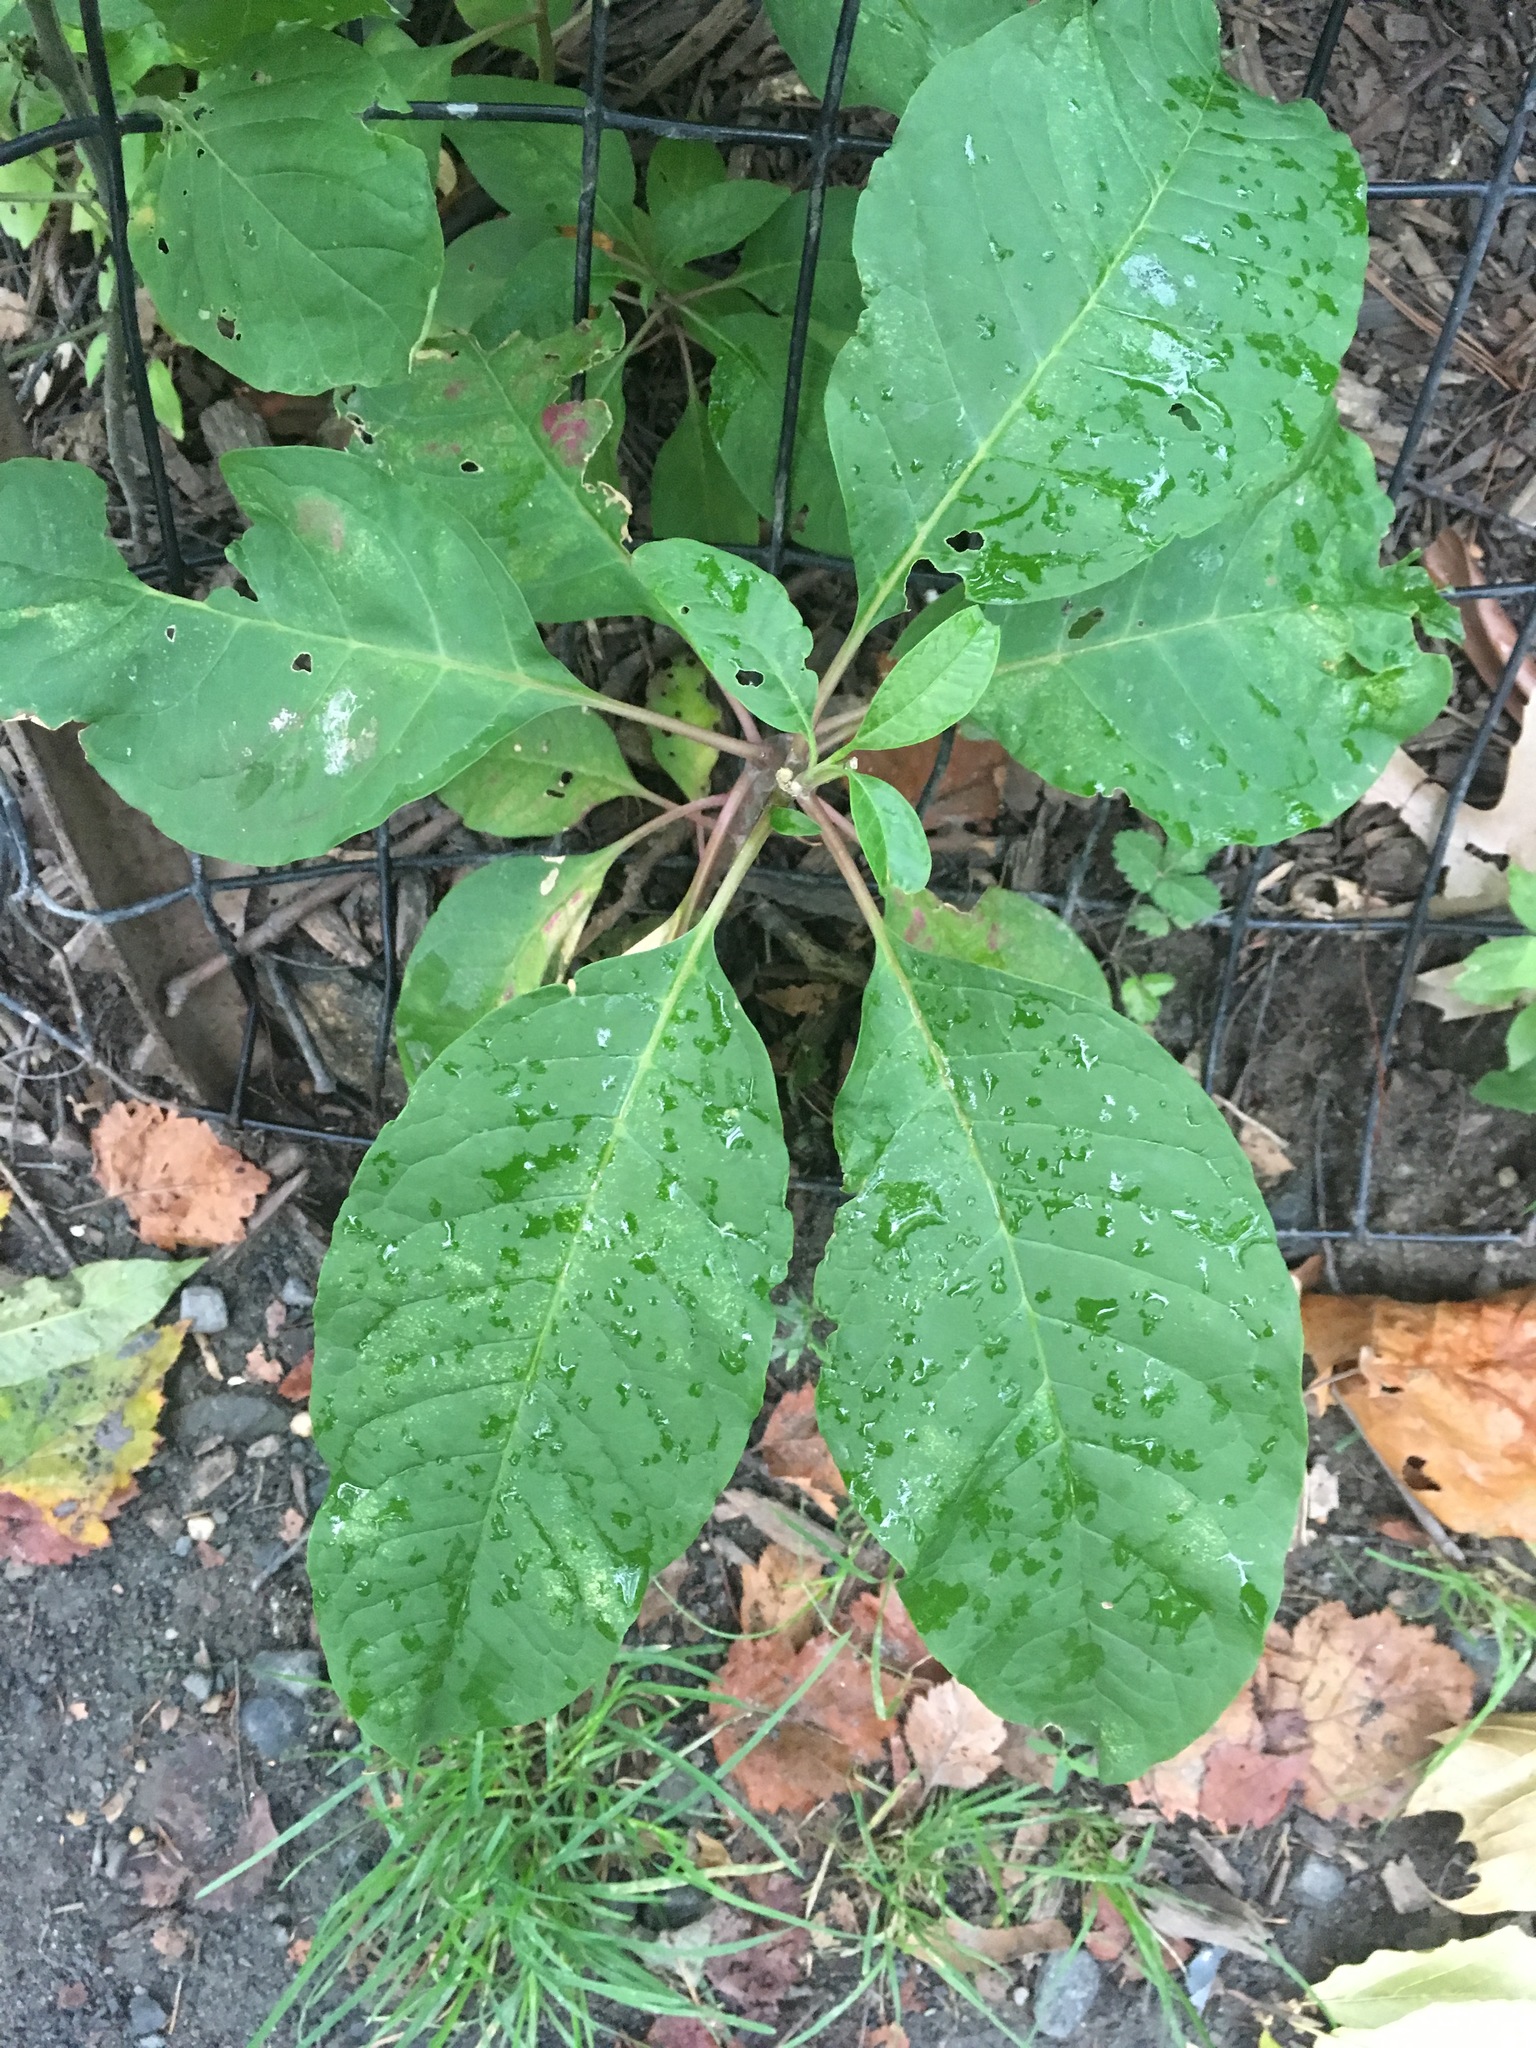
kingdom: Plantae
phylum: Tracheophyta
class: Magnoliopsida
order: Caryophyllales
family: Phytolaccaceae
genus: Phytolacca
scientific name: Phytolacca americana
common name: American pokeweed
